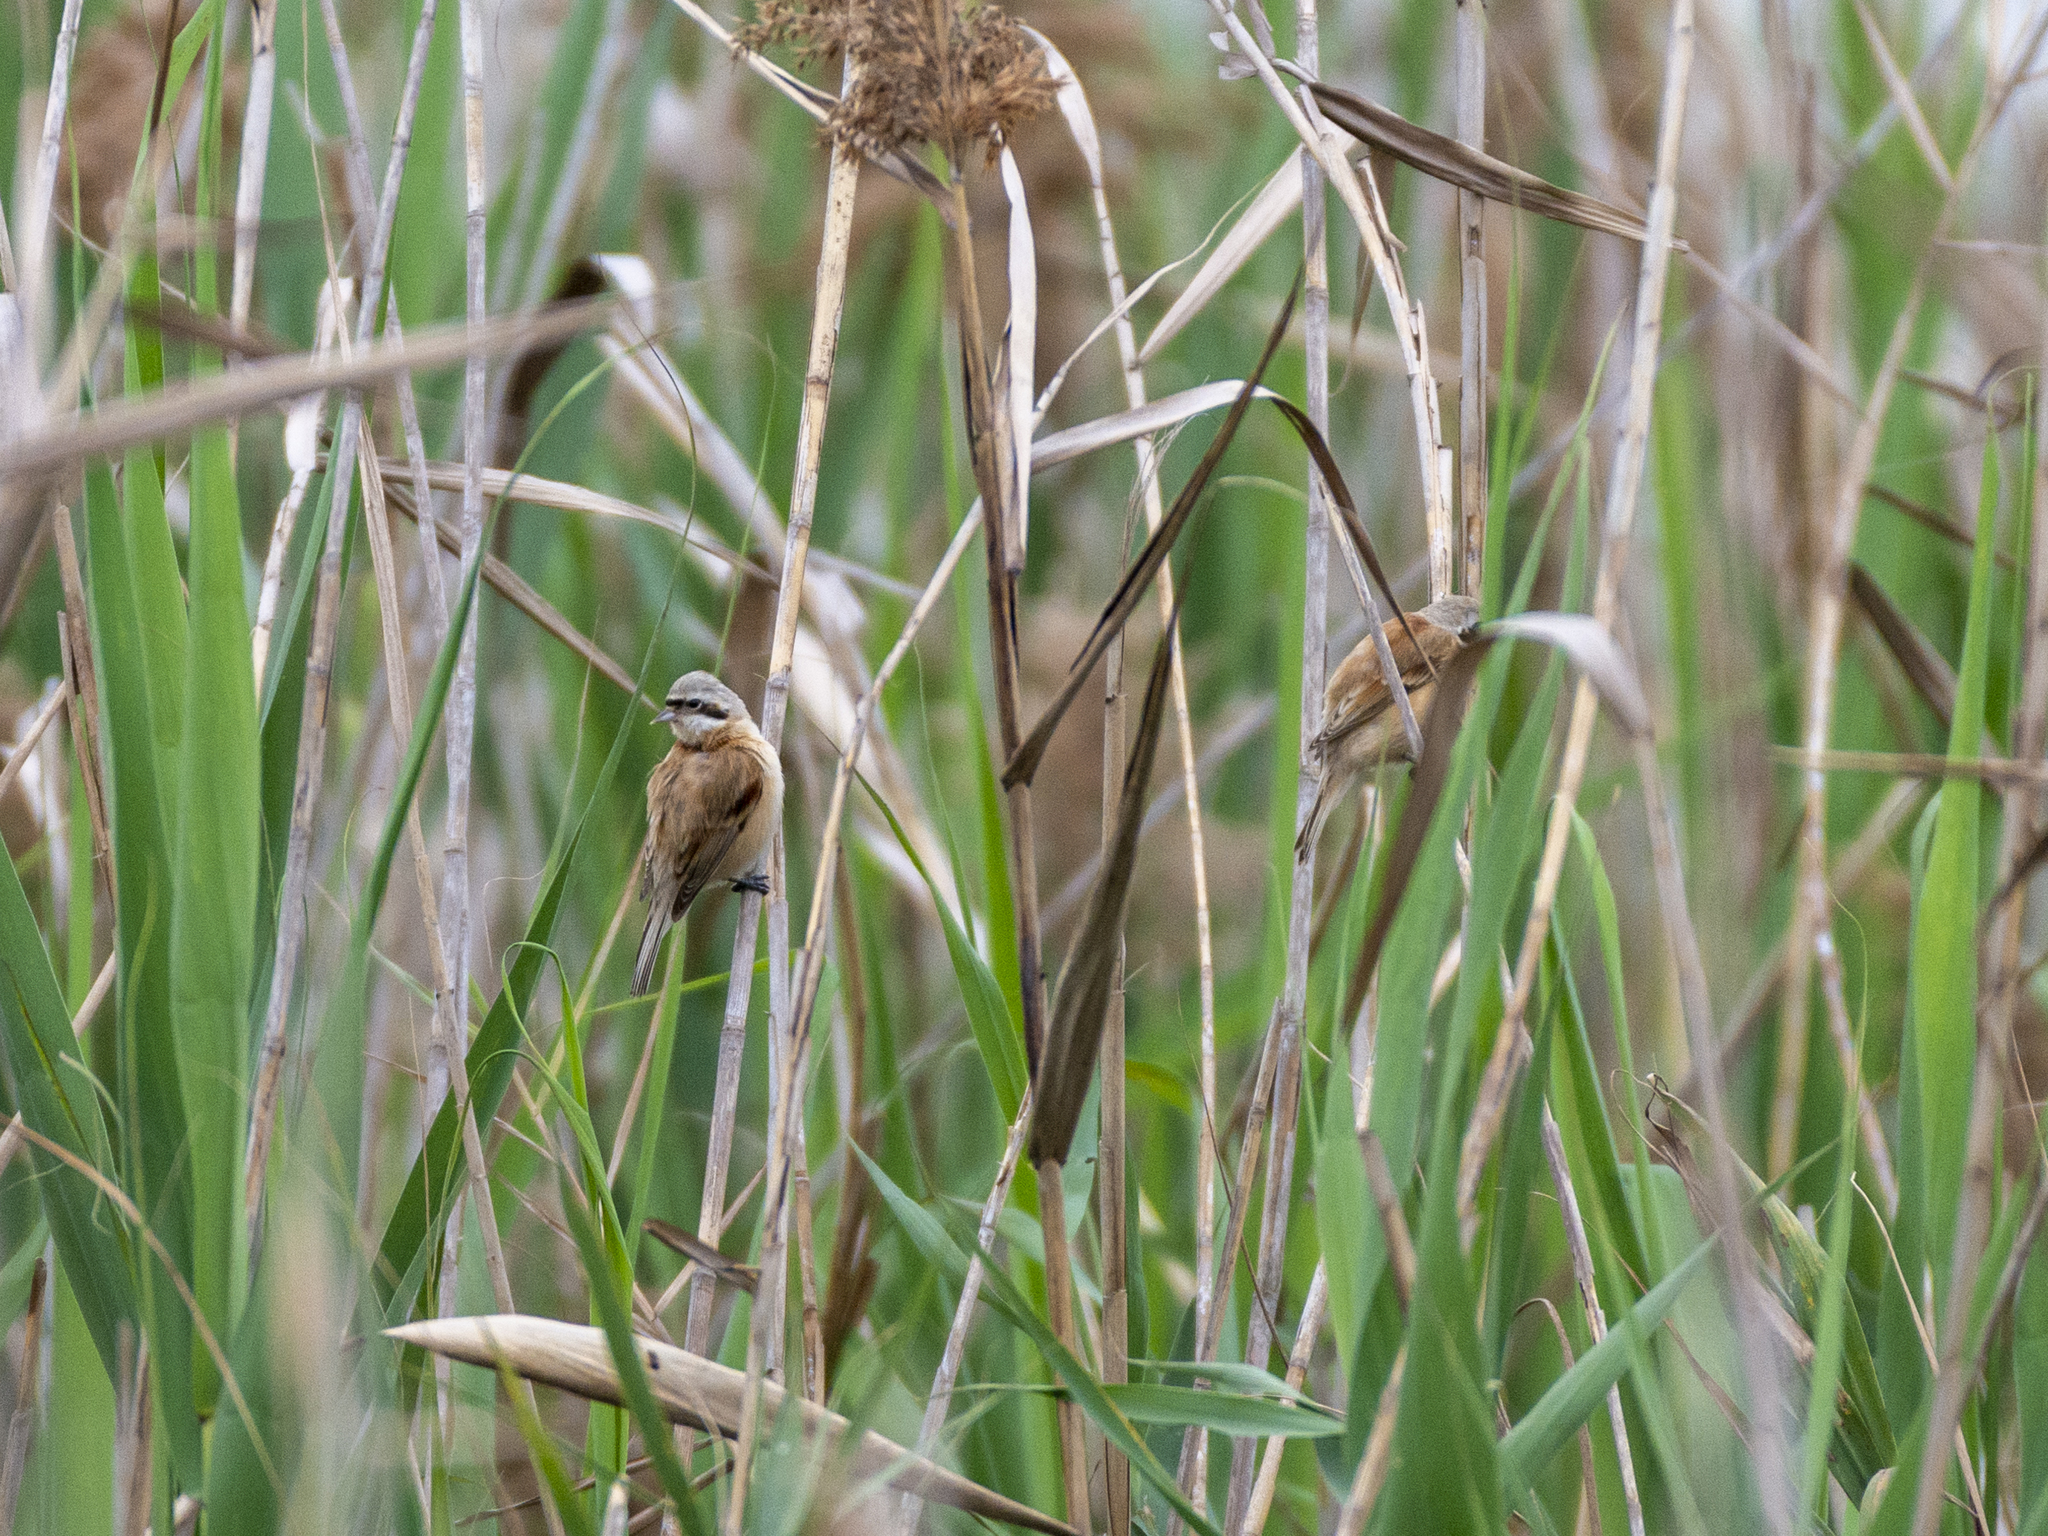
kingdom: Animalia
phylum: Chordata
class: Aves
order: Passeriformes
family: Remizidae
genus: Remiz
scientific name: Remiz consobrinus
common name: Chinese penduline tit
